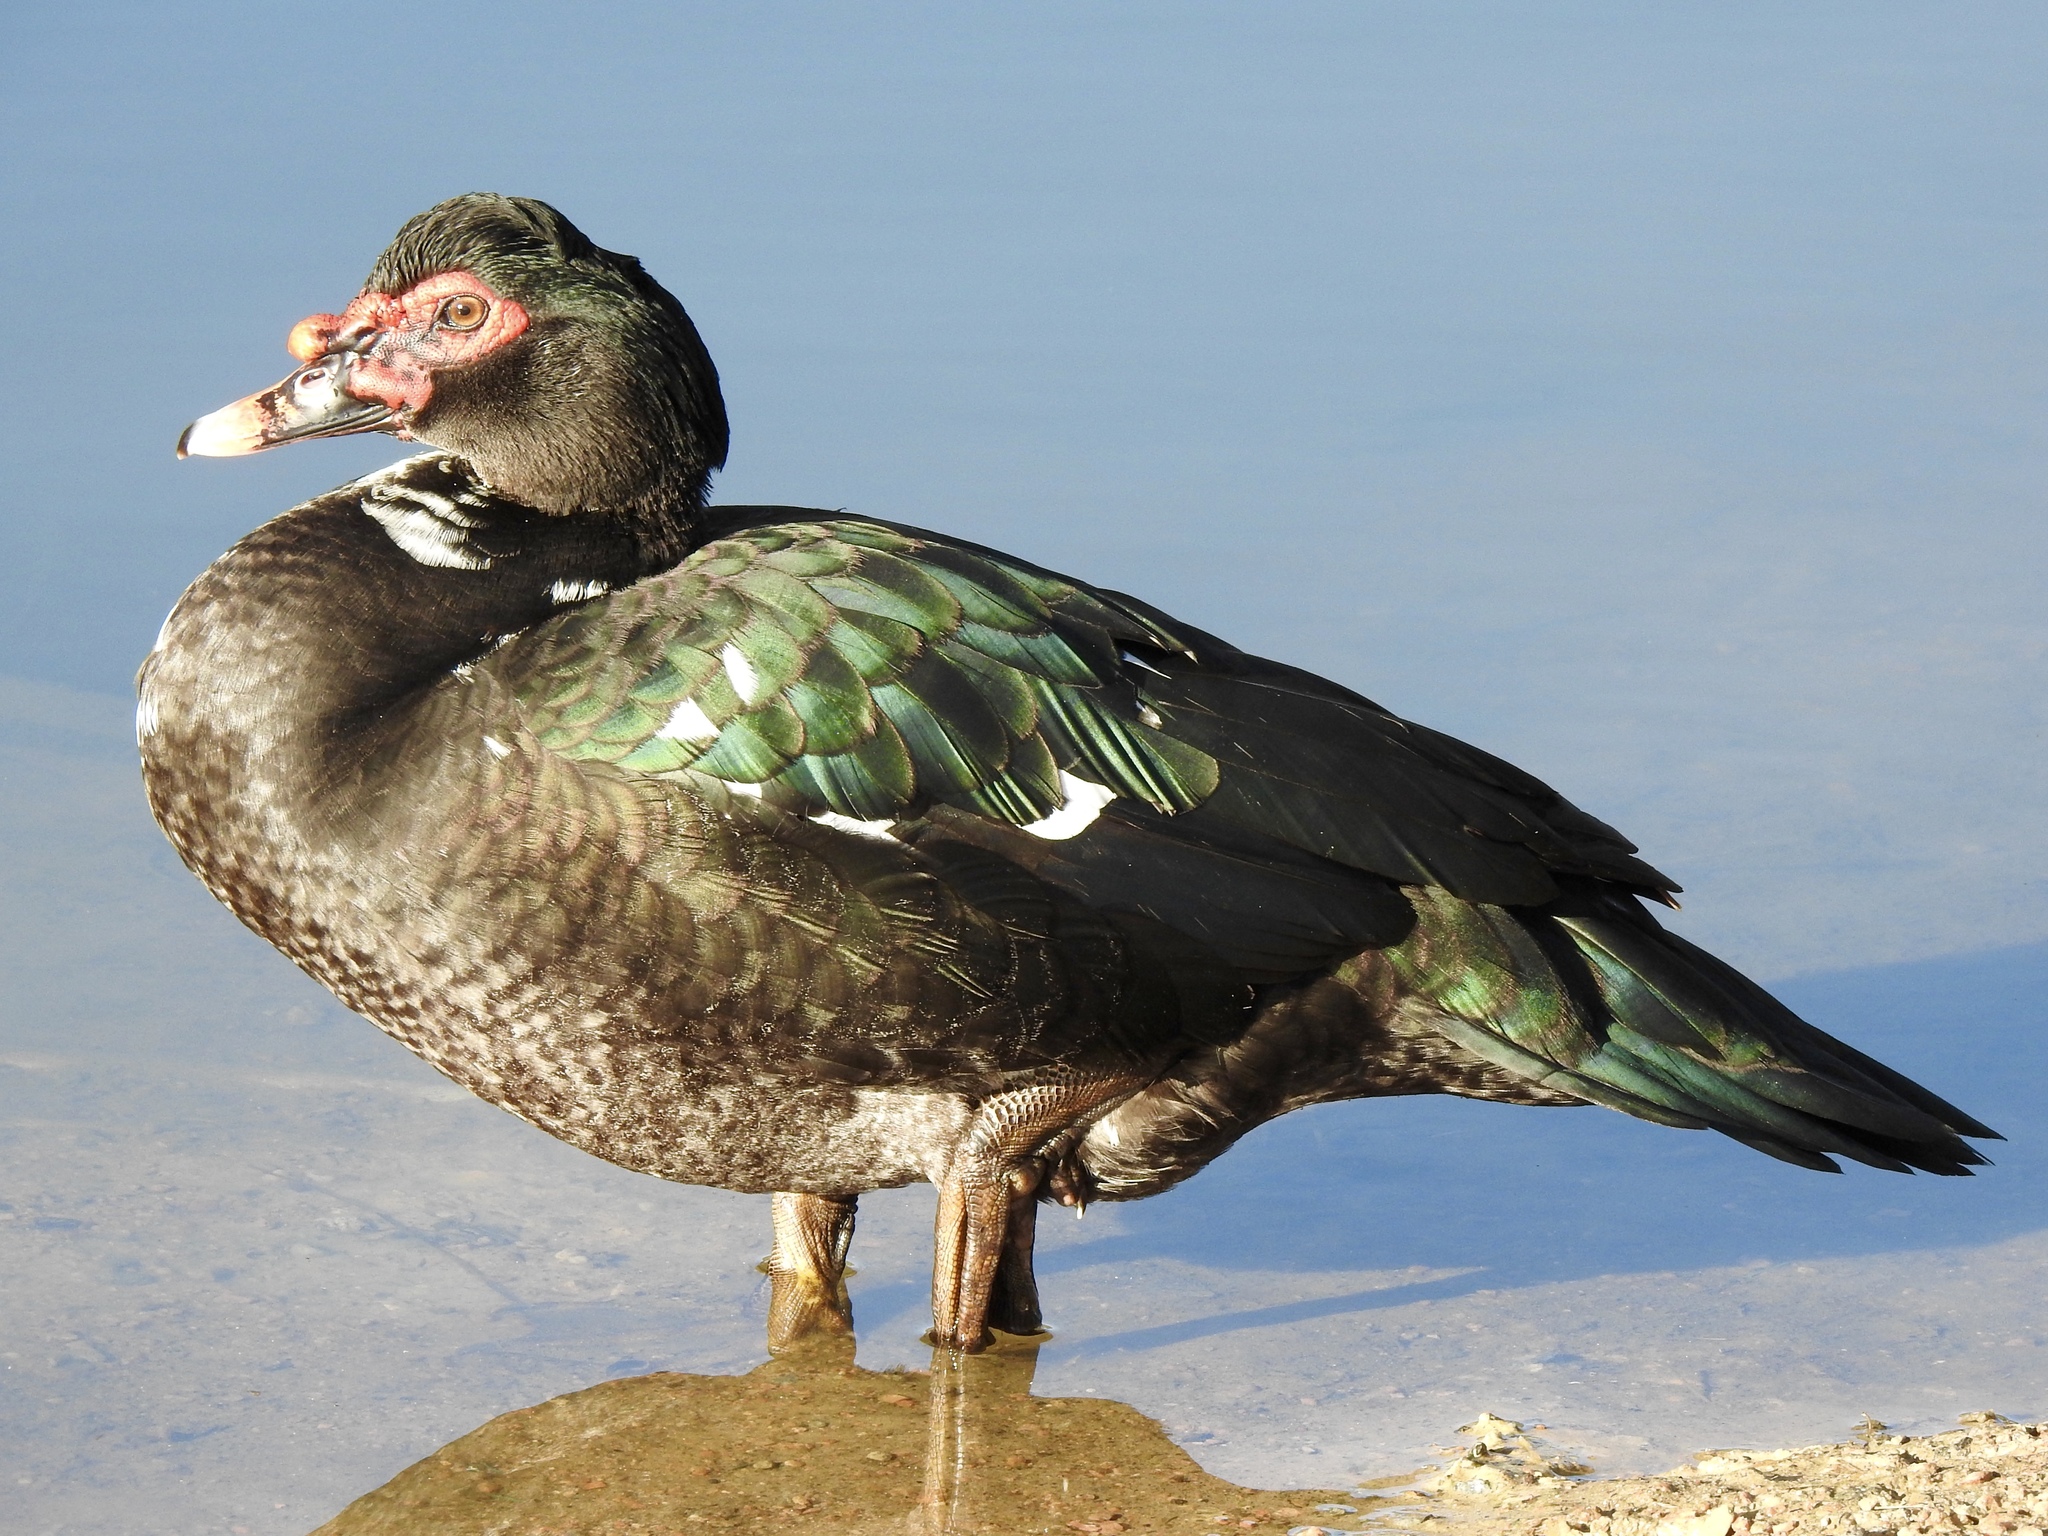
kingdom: Animalia
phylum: Chordata
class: Aves
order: Anseriformes
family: Anatidae
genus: Cairina
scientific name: Cairina moschata
